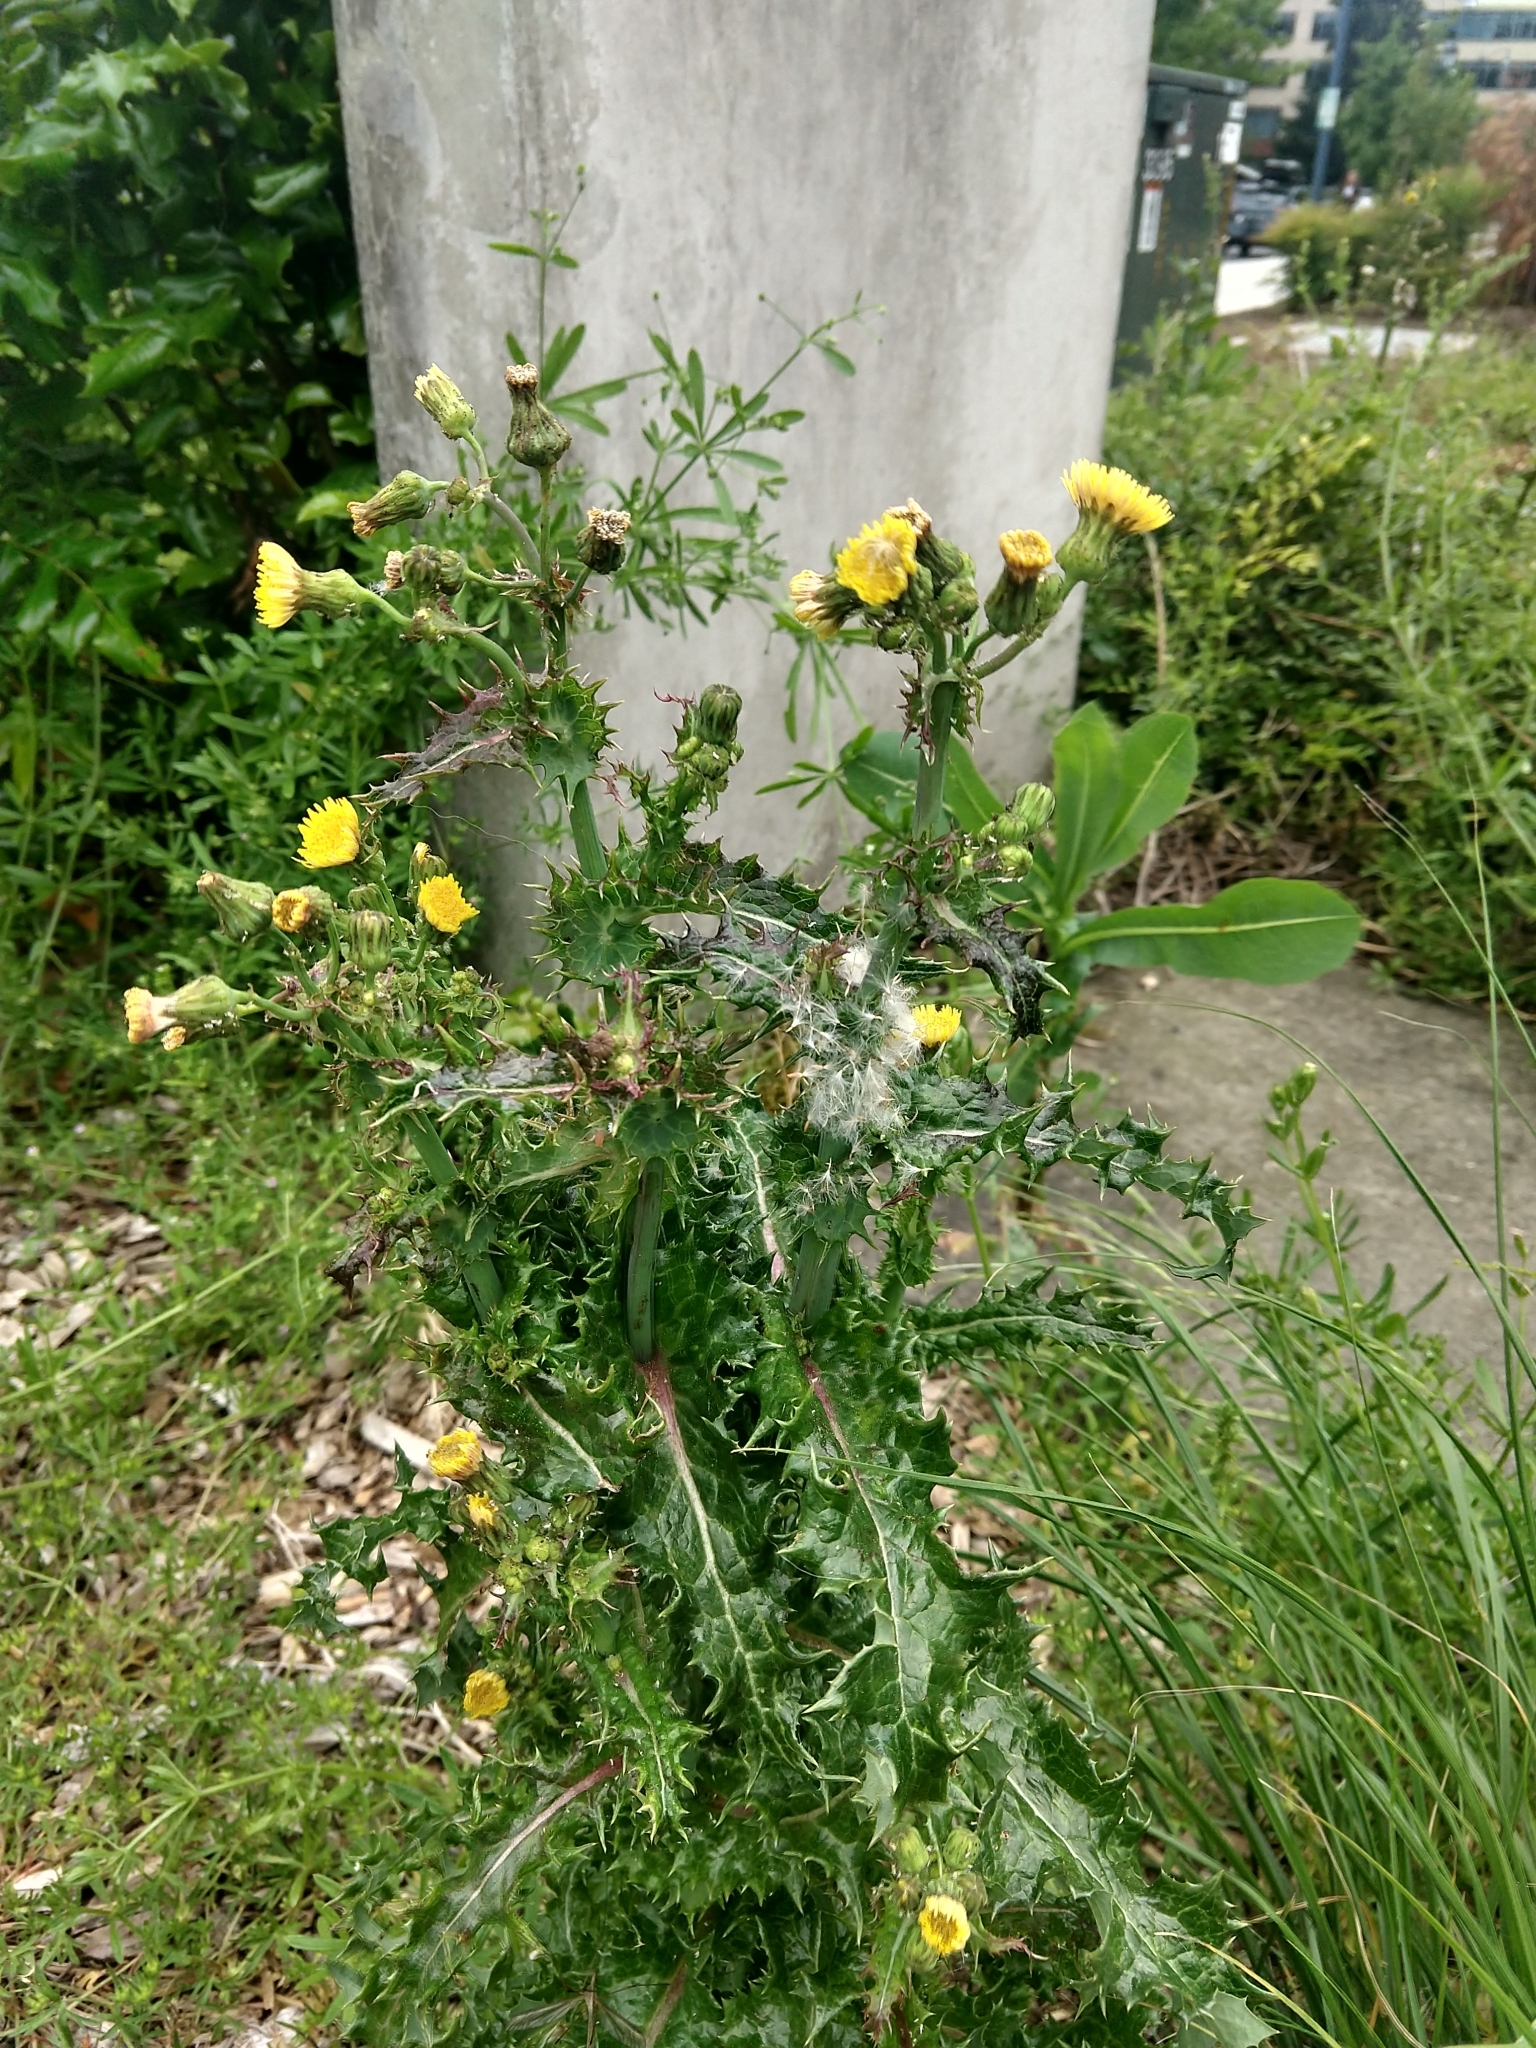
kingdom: Plantae
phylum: Tracheophyta
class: Magnoliopsida
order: Asterales
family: Asteraceae
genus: Sonchus
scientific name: Sonchus asper
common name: Prickly sow-thistle
